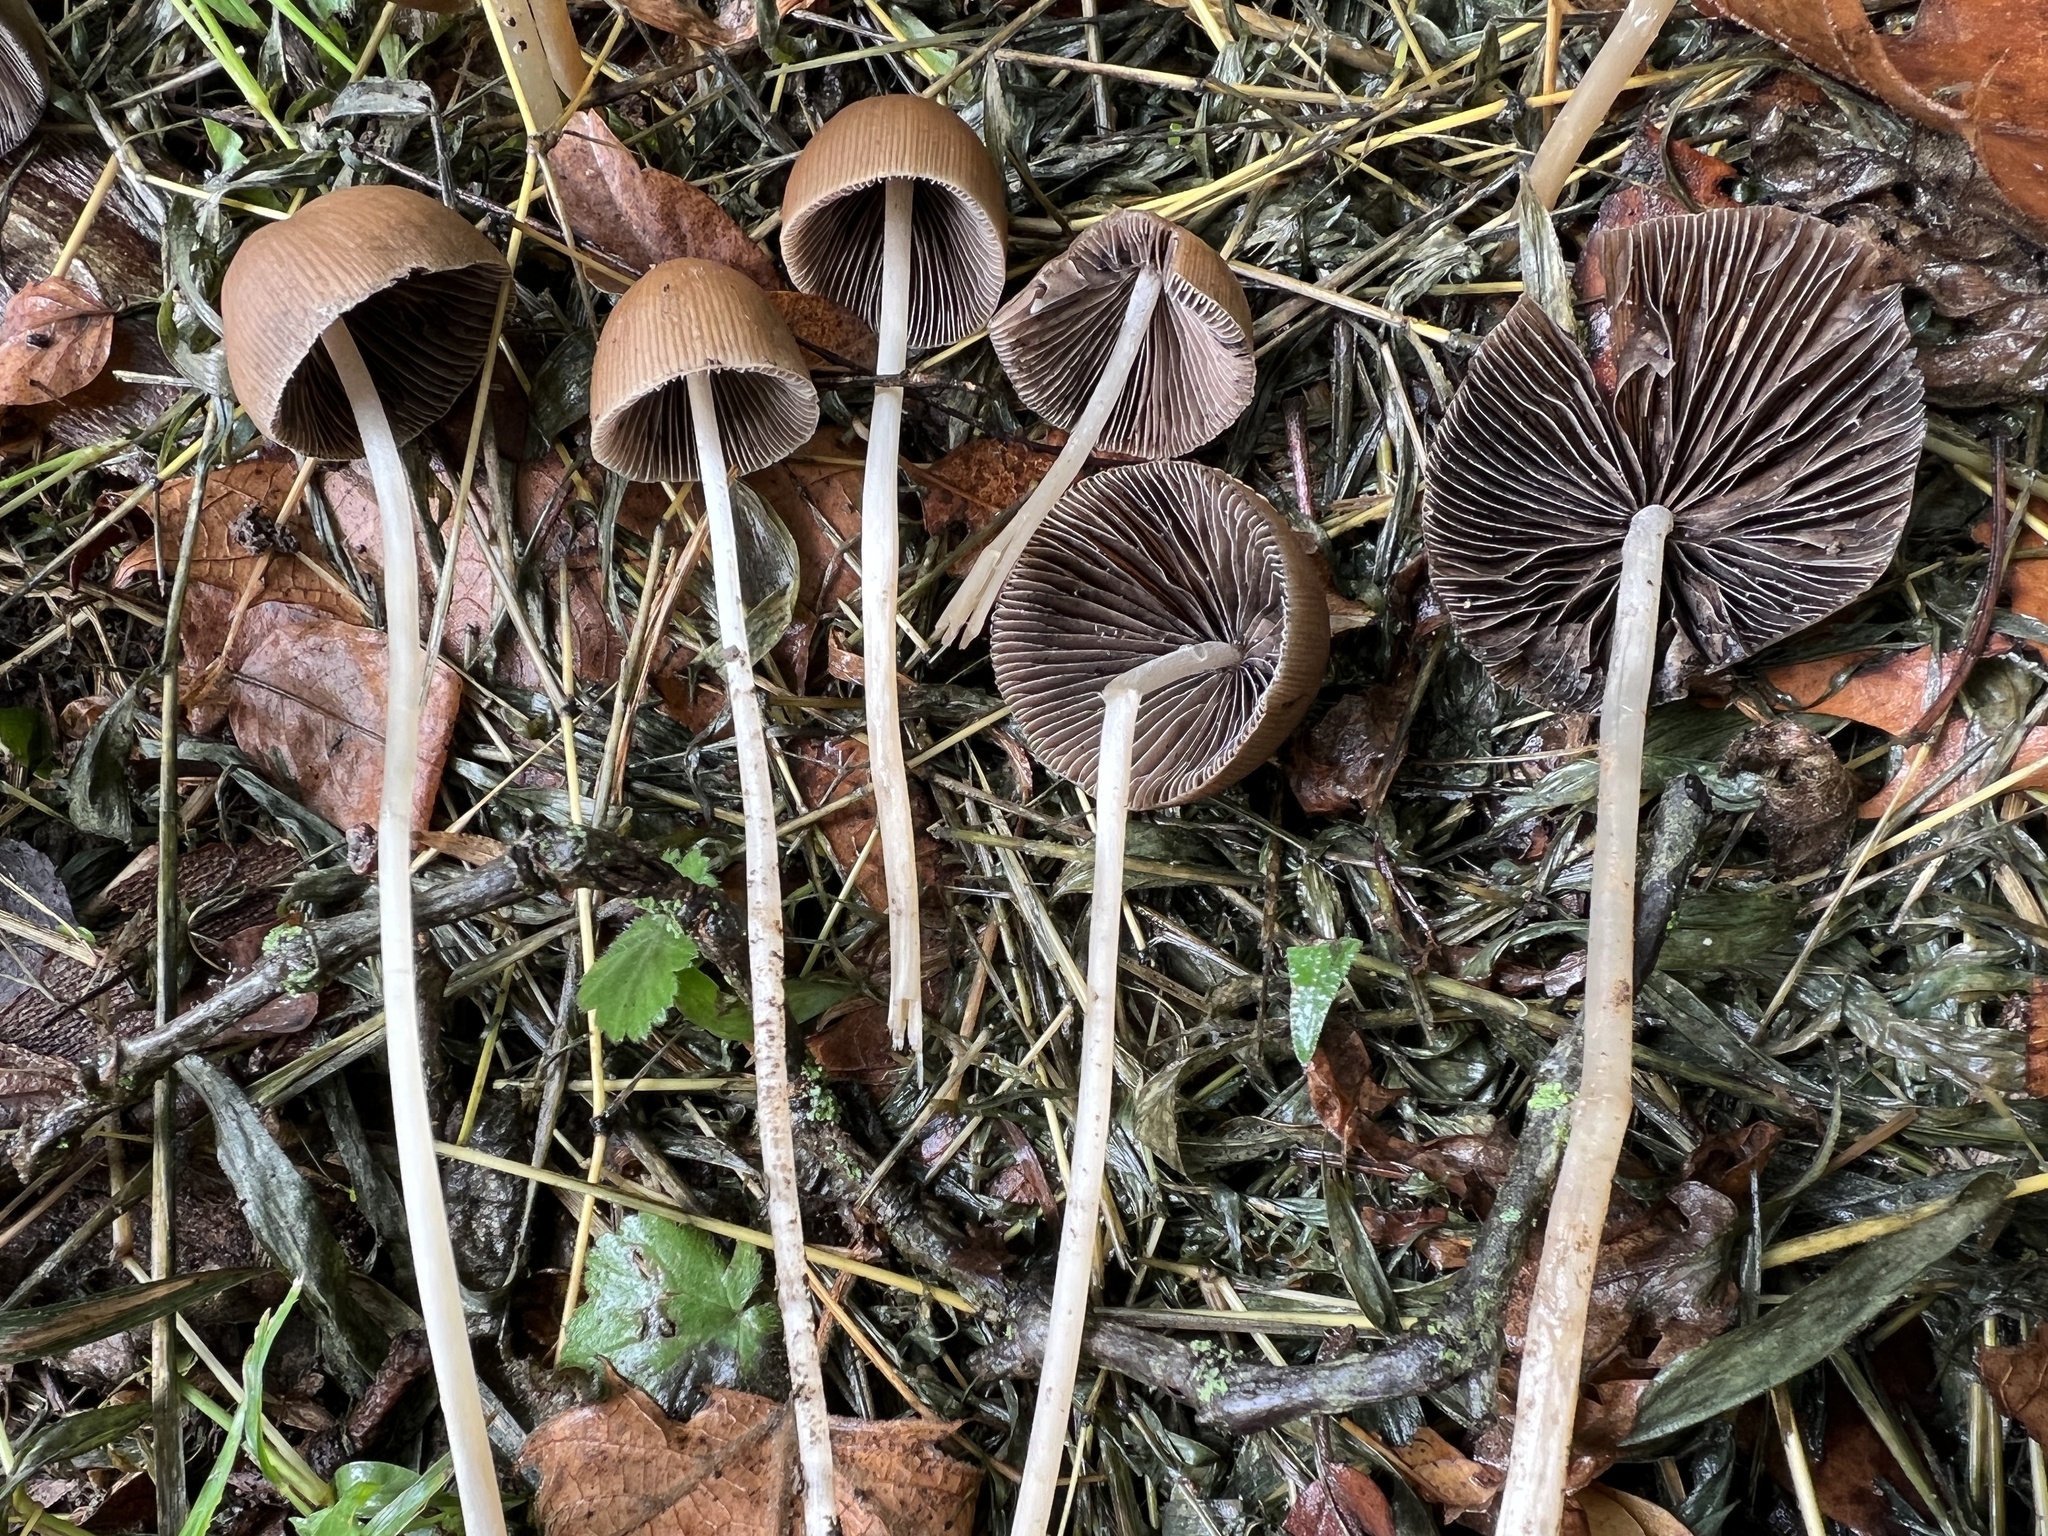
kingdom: Fungi
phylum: Basidiomycota
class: Agaricomycetes
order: Agaricales
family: Psathyrellaceae
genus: Parasola
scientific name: Parasola conopilea
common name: Conical brittlestem
